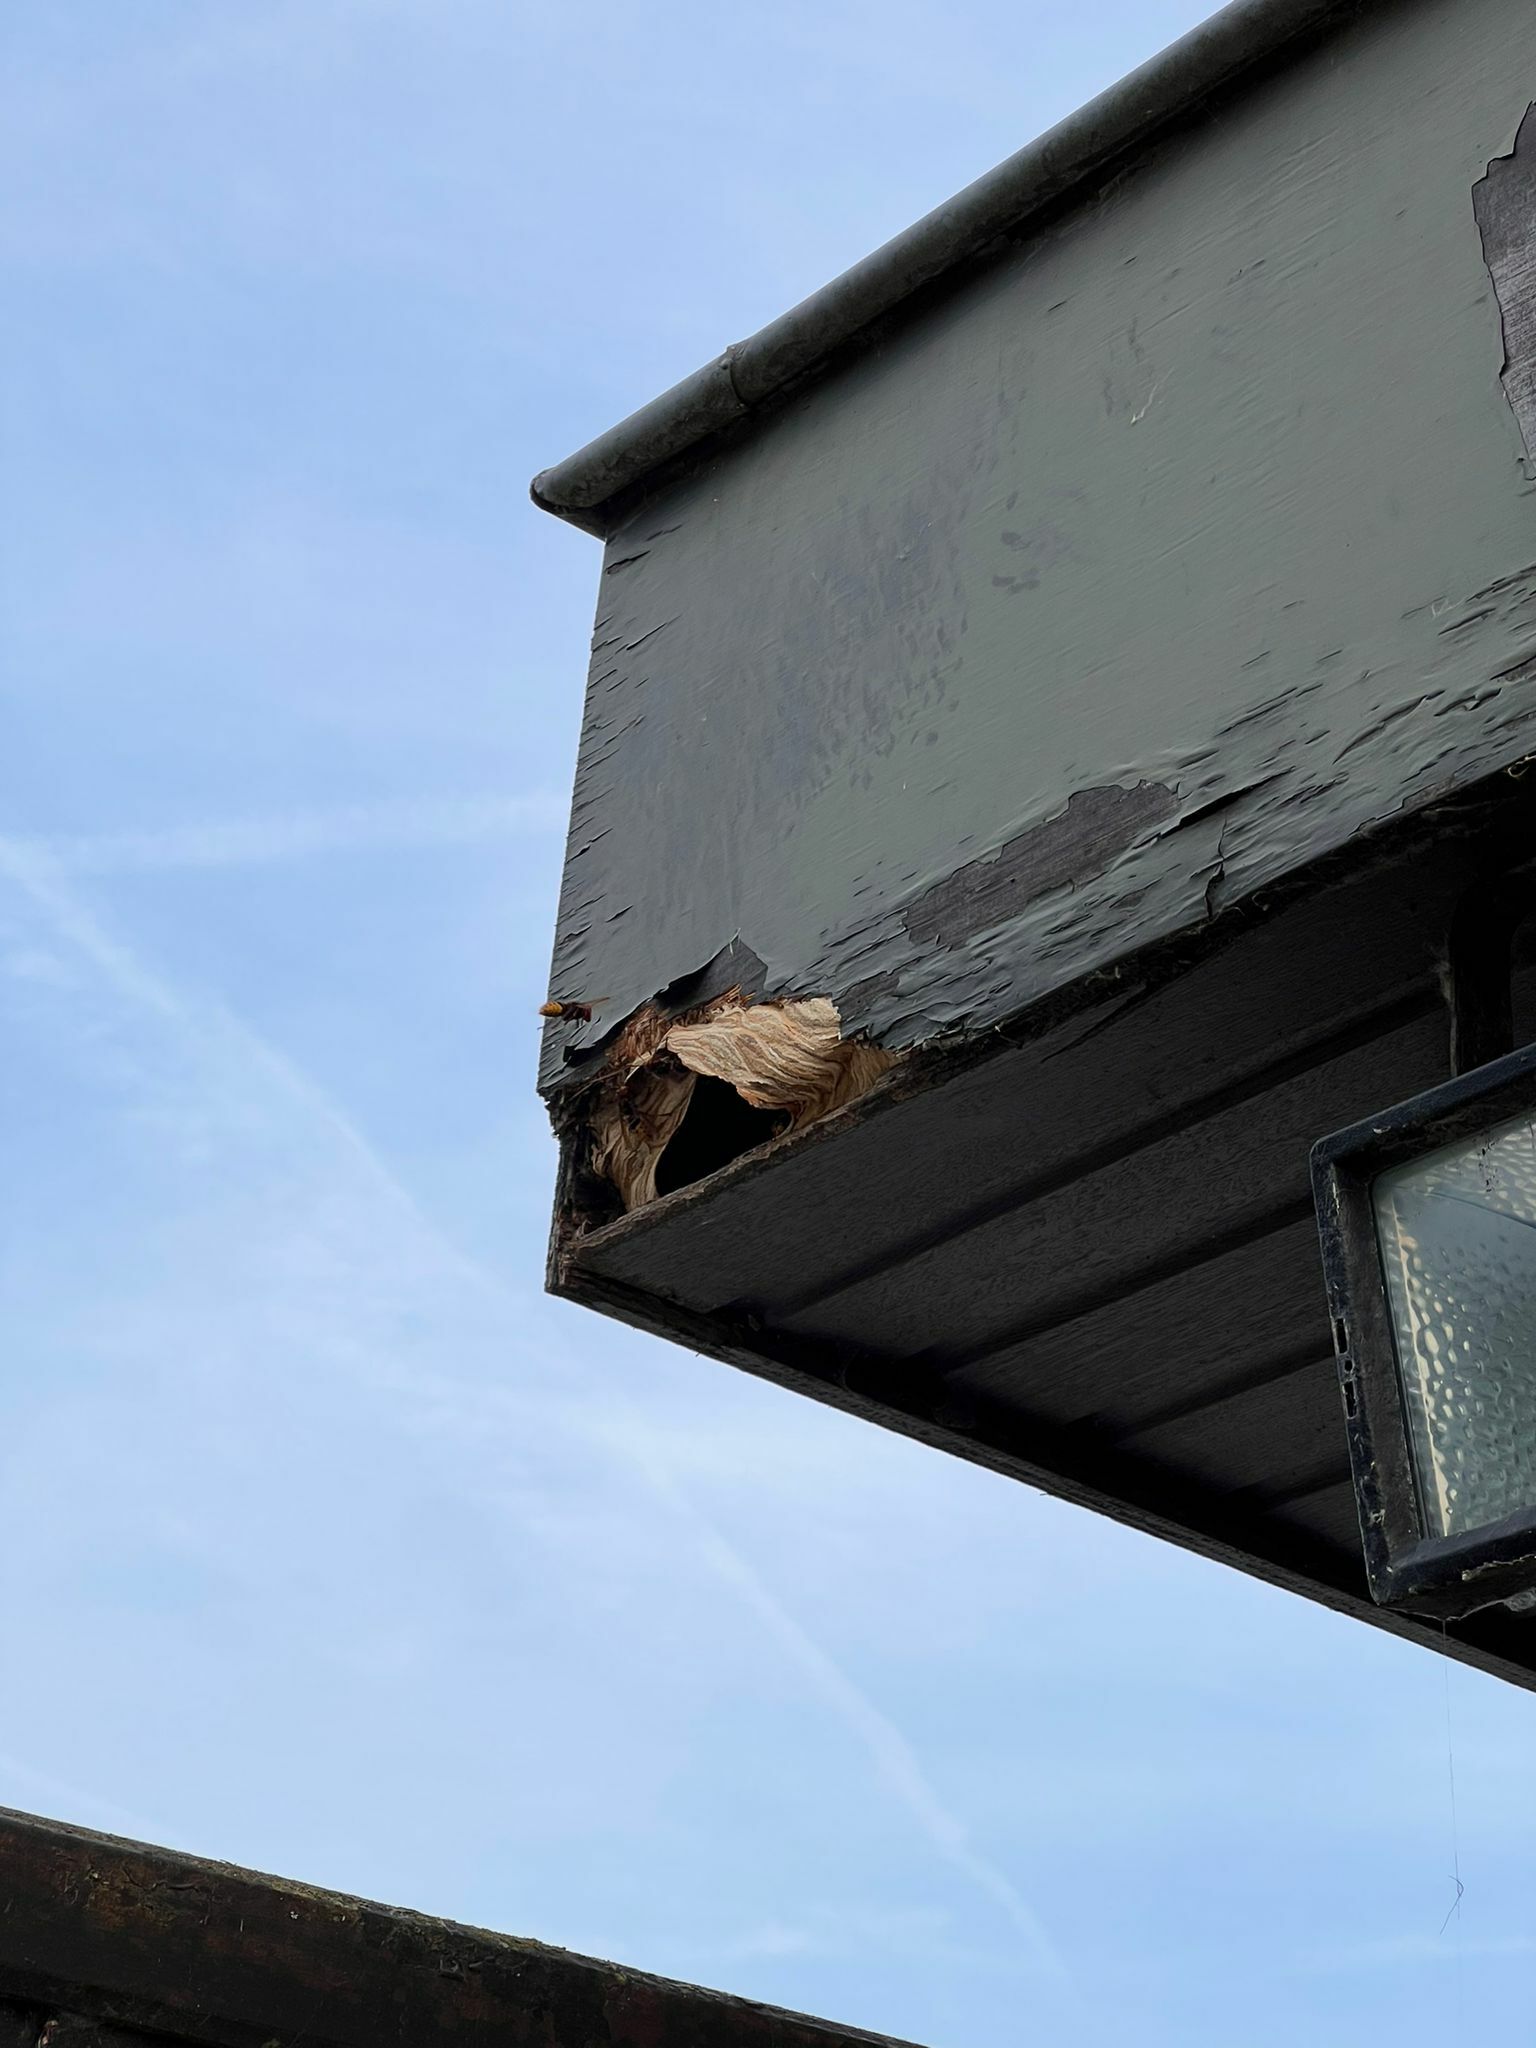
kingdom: Animalia
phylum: Arthropoda
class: Insecta
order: Hymenoptera
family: Vespidae
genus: Vespa
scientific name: Vespa crabro
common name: Hornet
